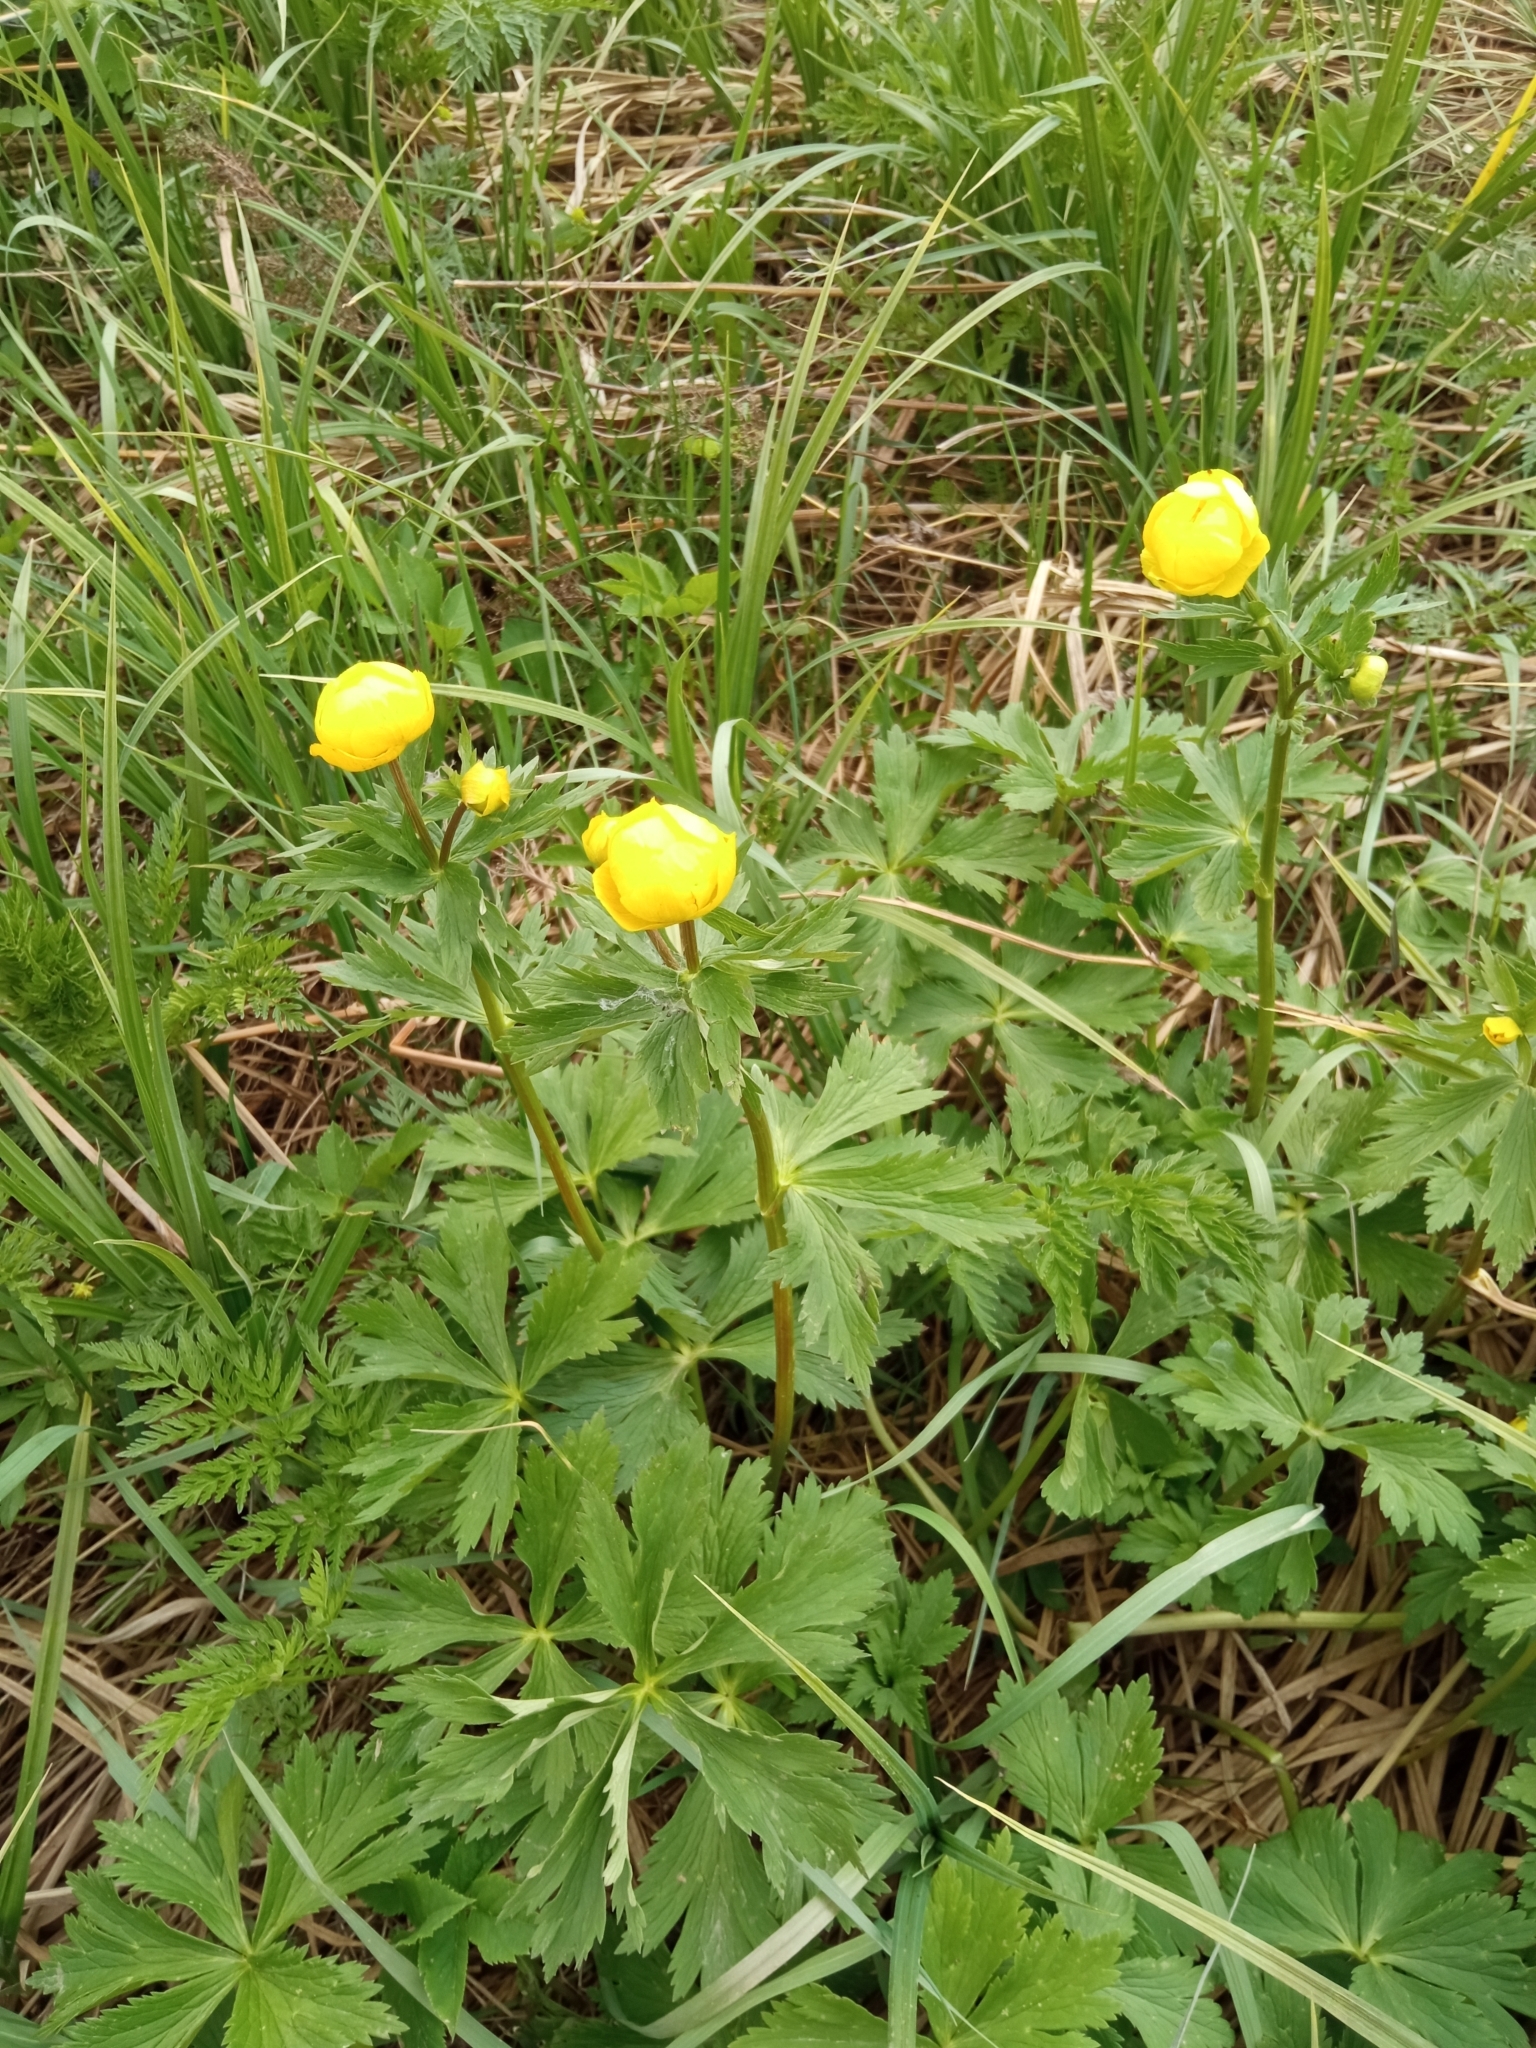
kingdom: Plantae
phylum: Tracheophyta
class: Magnoliopsida
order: Ranunculales
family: Ranunculaceae
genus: Trollius
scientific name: Trollius europaeus
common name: European globeflower
